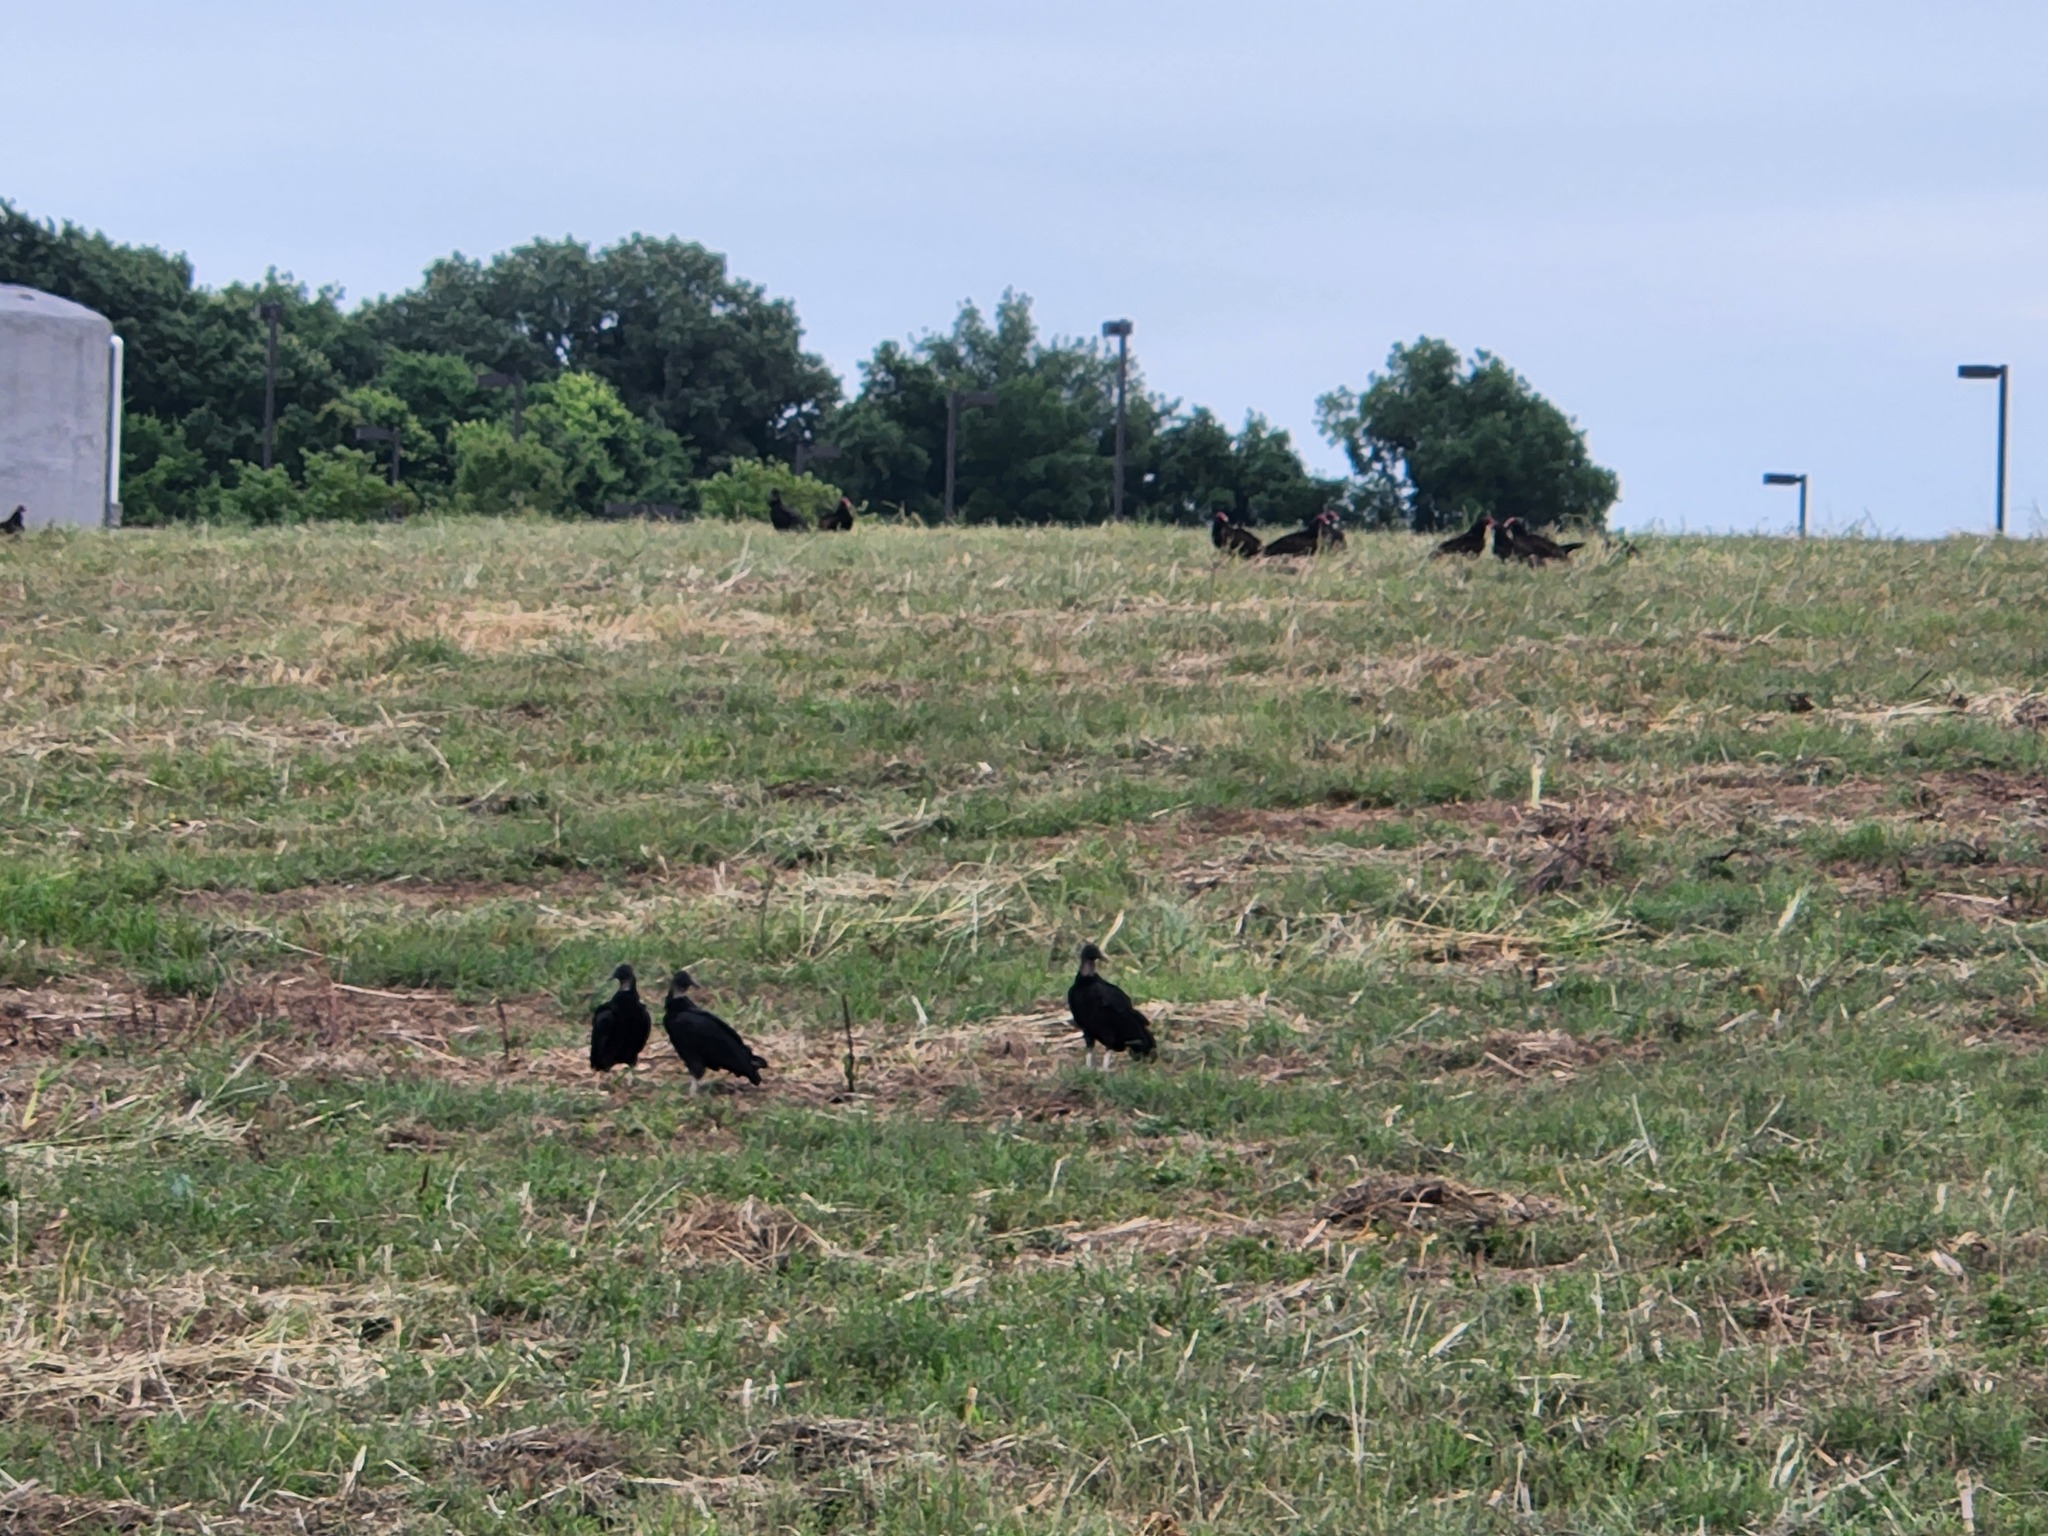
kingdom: Animalia
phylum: Chordata
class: Aves
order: Accipitriformes
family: Cathartidae
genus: Coragyps
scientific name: Coragyps atratus
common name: Black vulture
